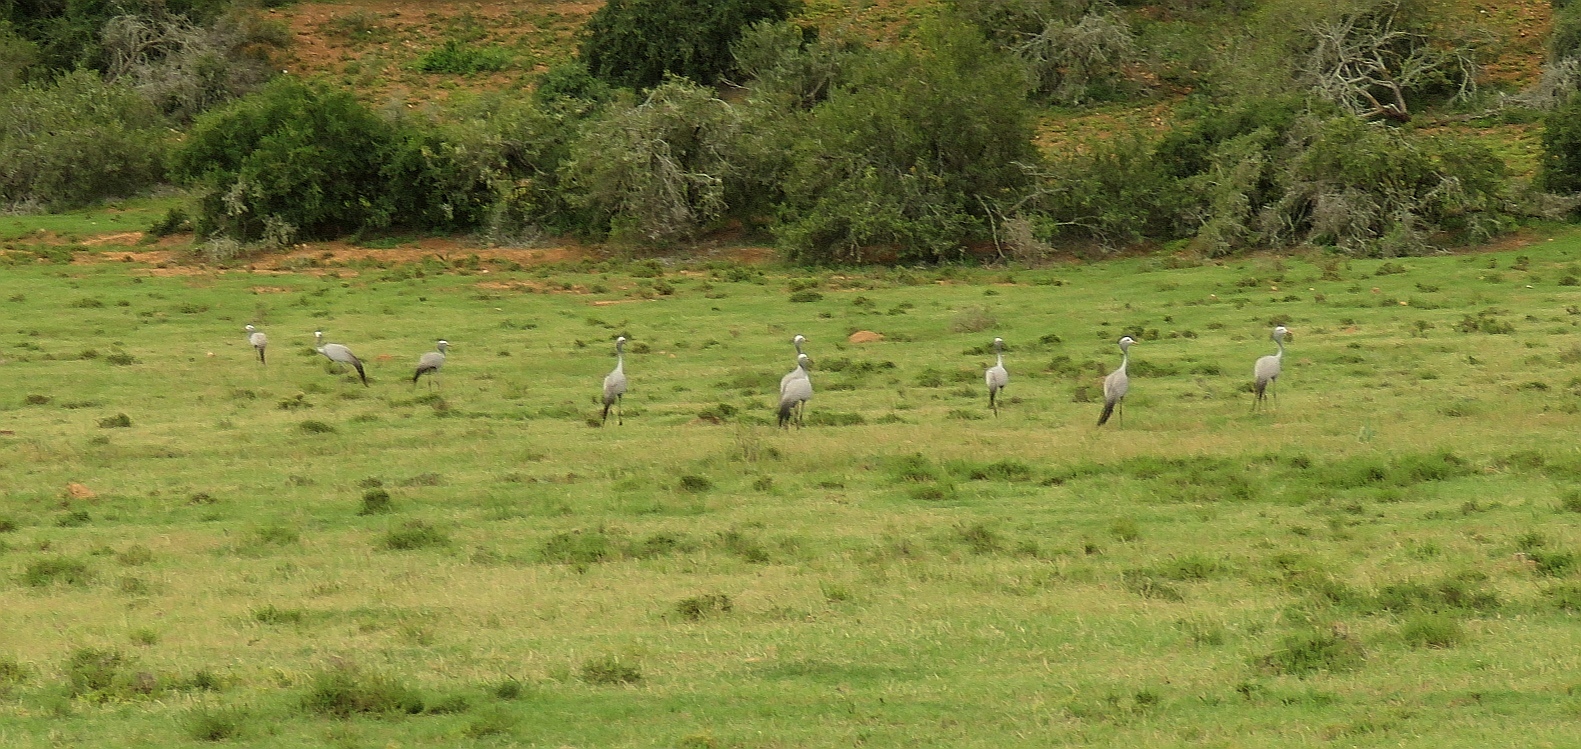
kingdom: Animalia
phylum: Chordata
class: Aves
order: Gruiformes
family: Gruidae
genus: Anthropoides
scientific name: Anthropoides paradiseus
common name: Blue crane
